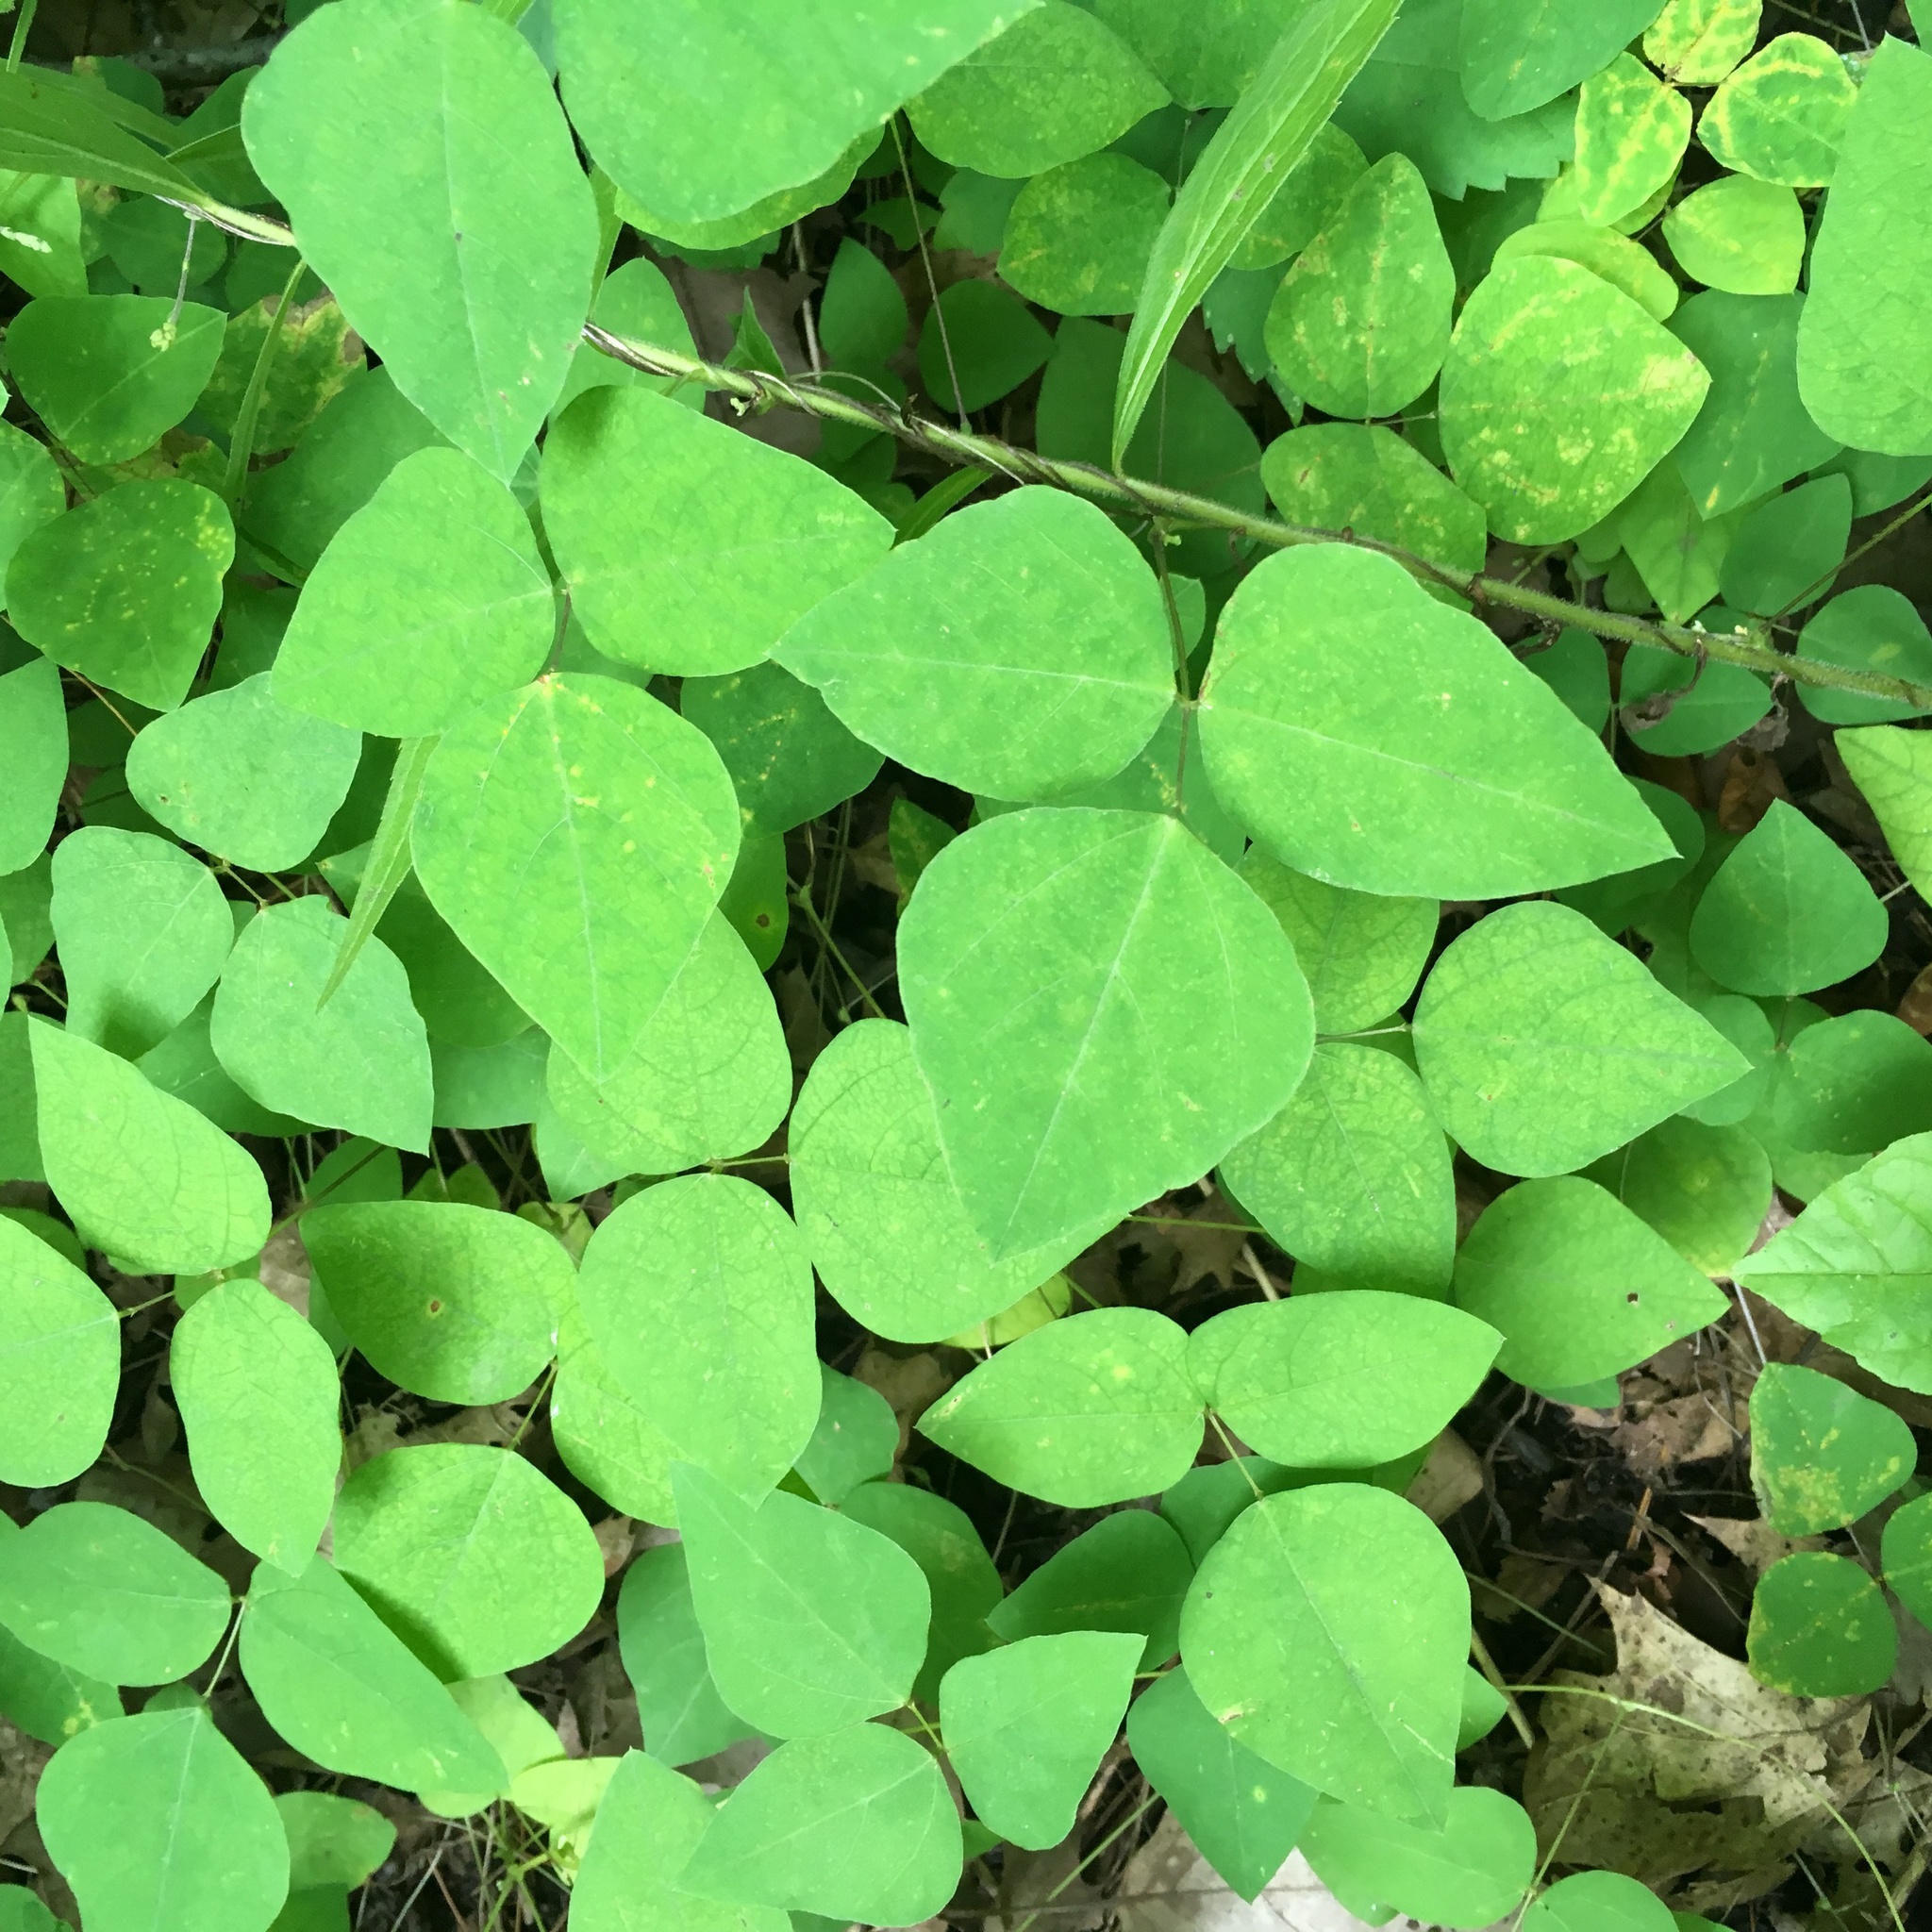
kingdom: Plantae
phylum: Tracheophyta
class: Magnoliopsida
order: Fabales
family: Fabaceae
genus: Amphicarpaea
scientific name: Amphicarpaea bracteata
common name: American hog peanut
